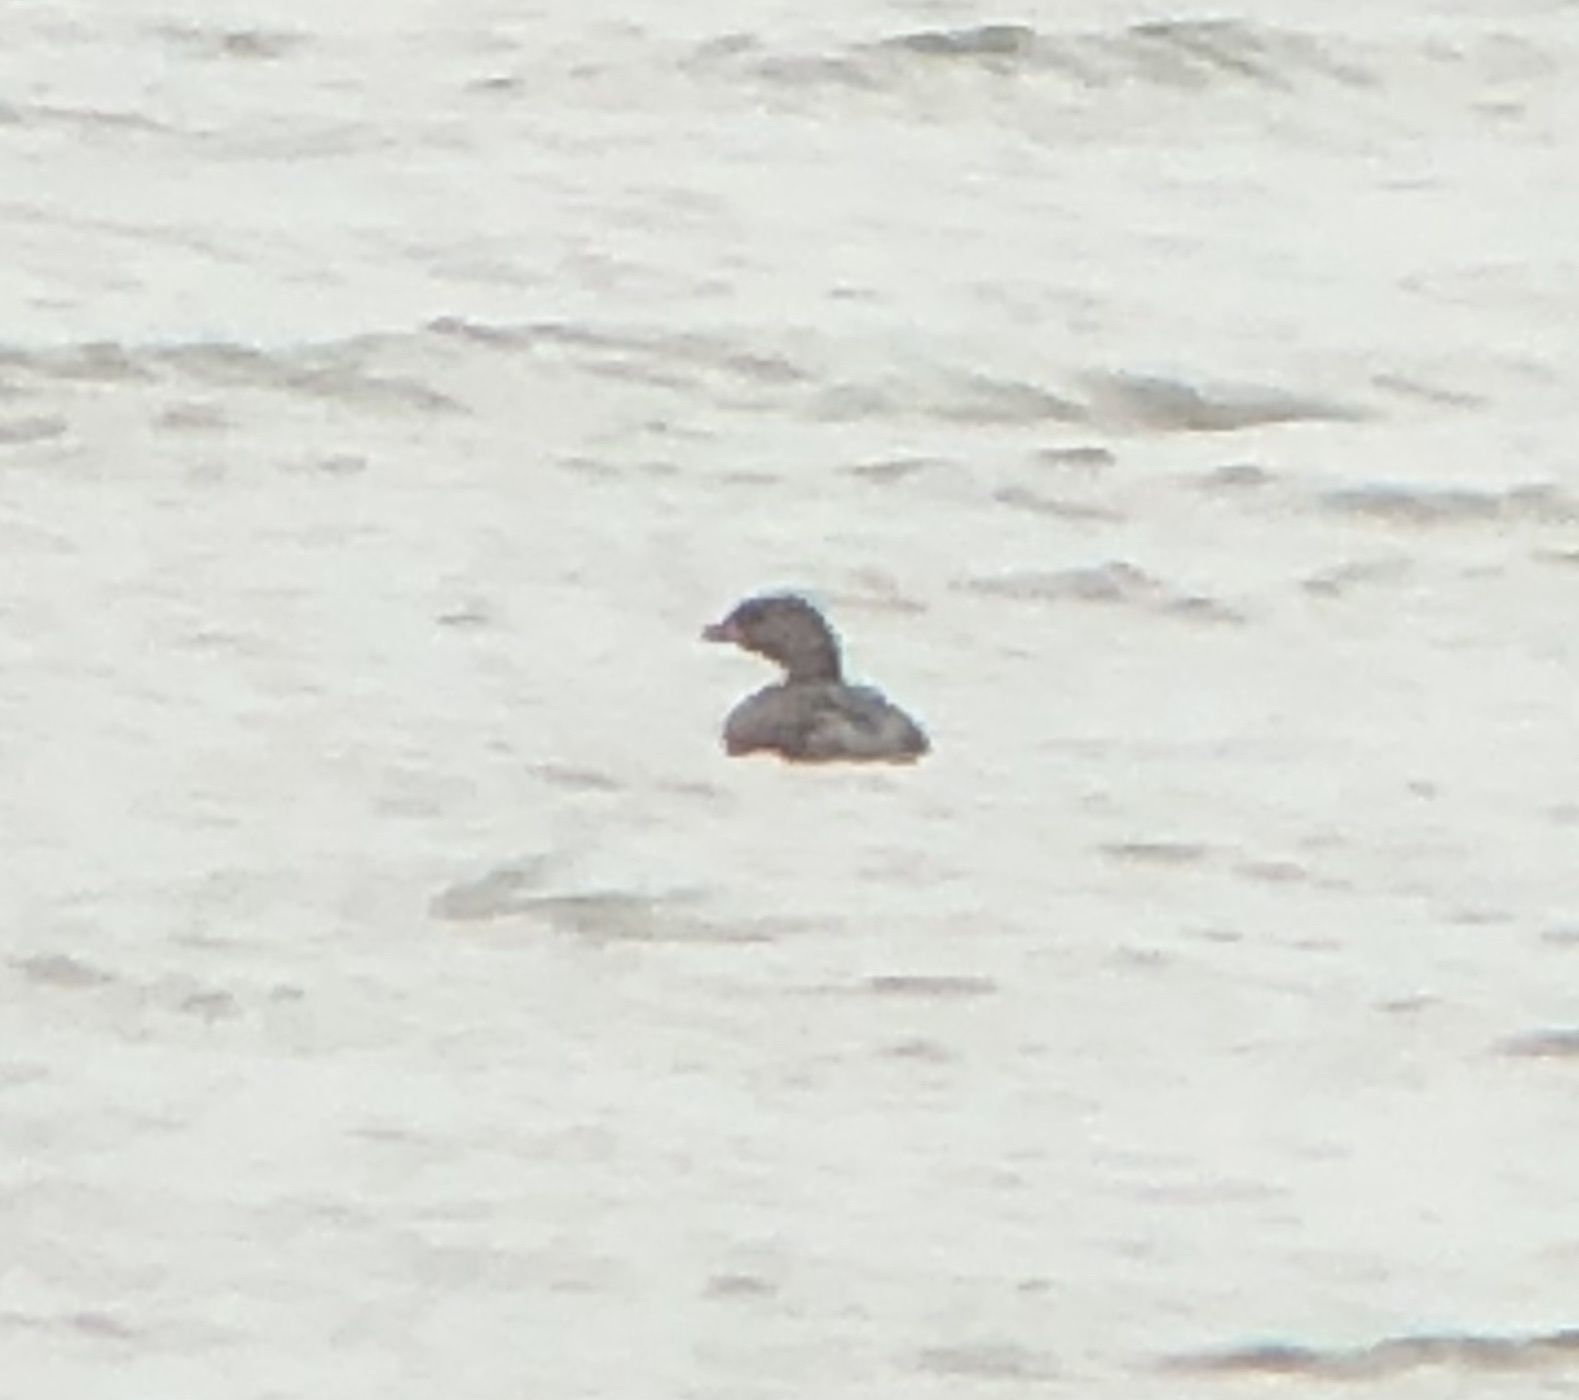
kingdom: Animalia
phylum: Chordata
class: Aves
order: Podicipediformes
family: Podicipedidae
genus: Podilymbus
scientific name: Podilymbus podiceps
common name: Pied-billed grebe
